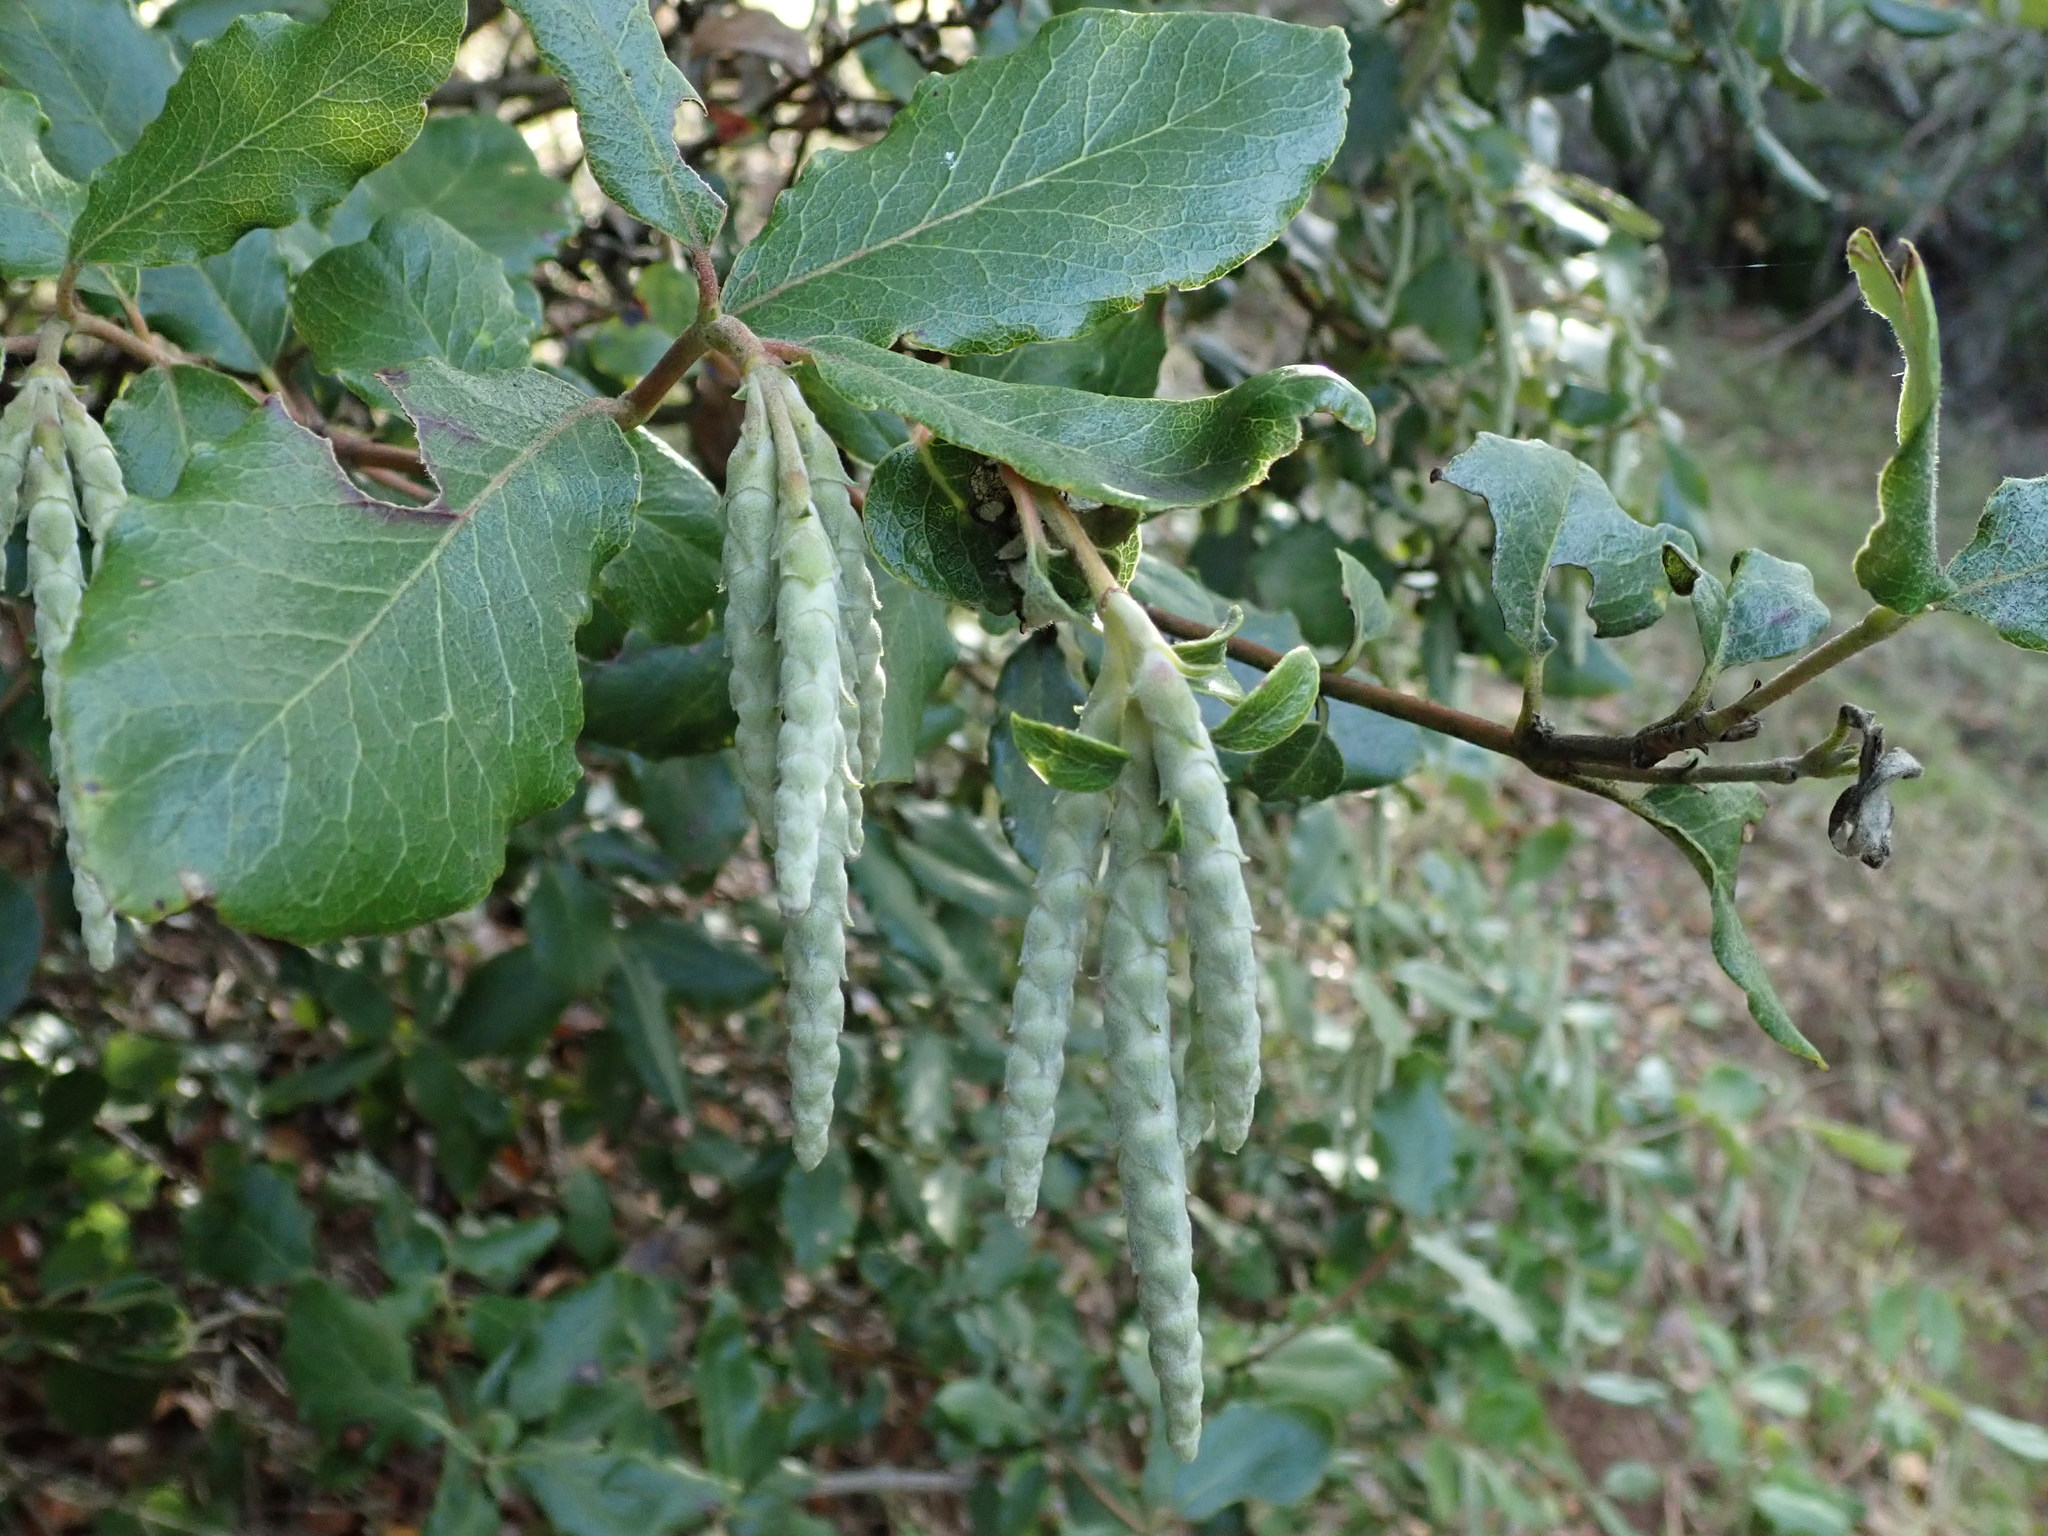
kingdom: Plantae
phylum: Tracheophyta
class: Magnoliopsida
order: Garryales
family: Garryaceae
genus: Garrya
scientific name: Garrya elliptica
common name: Silk-tassel
